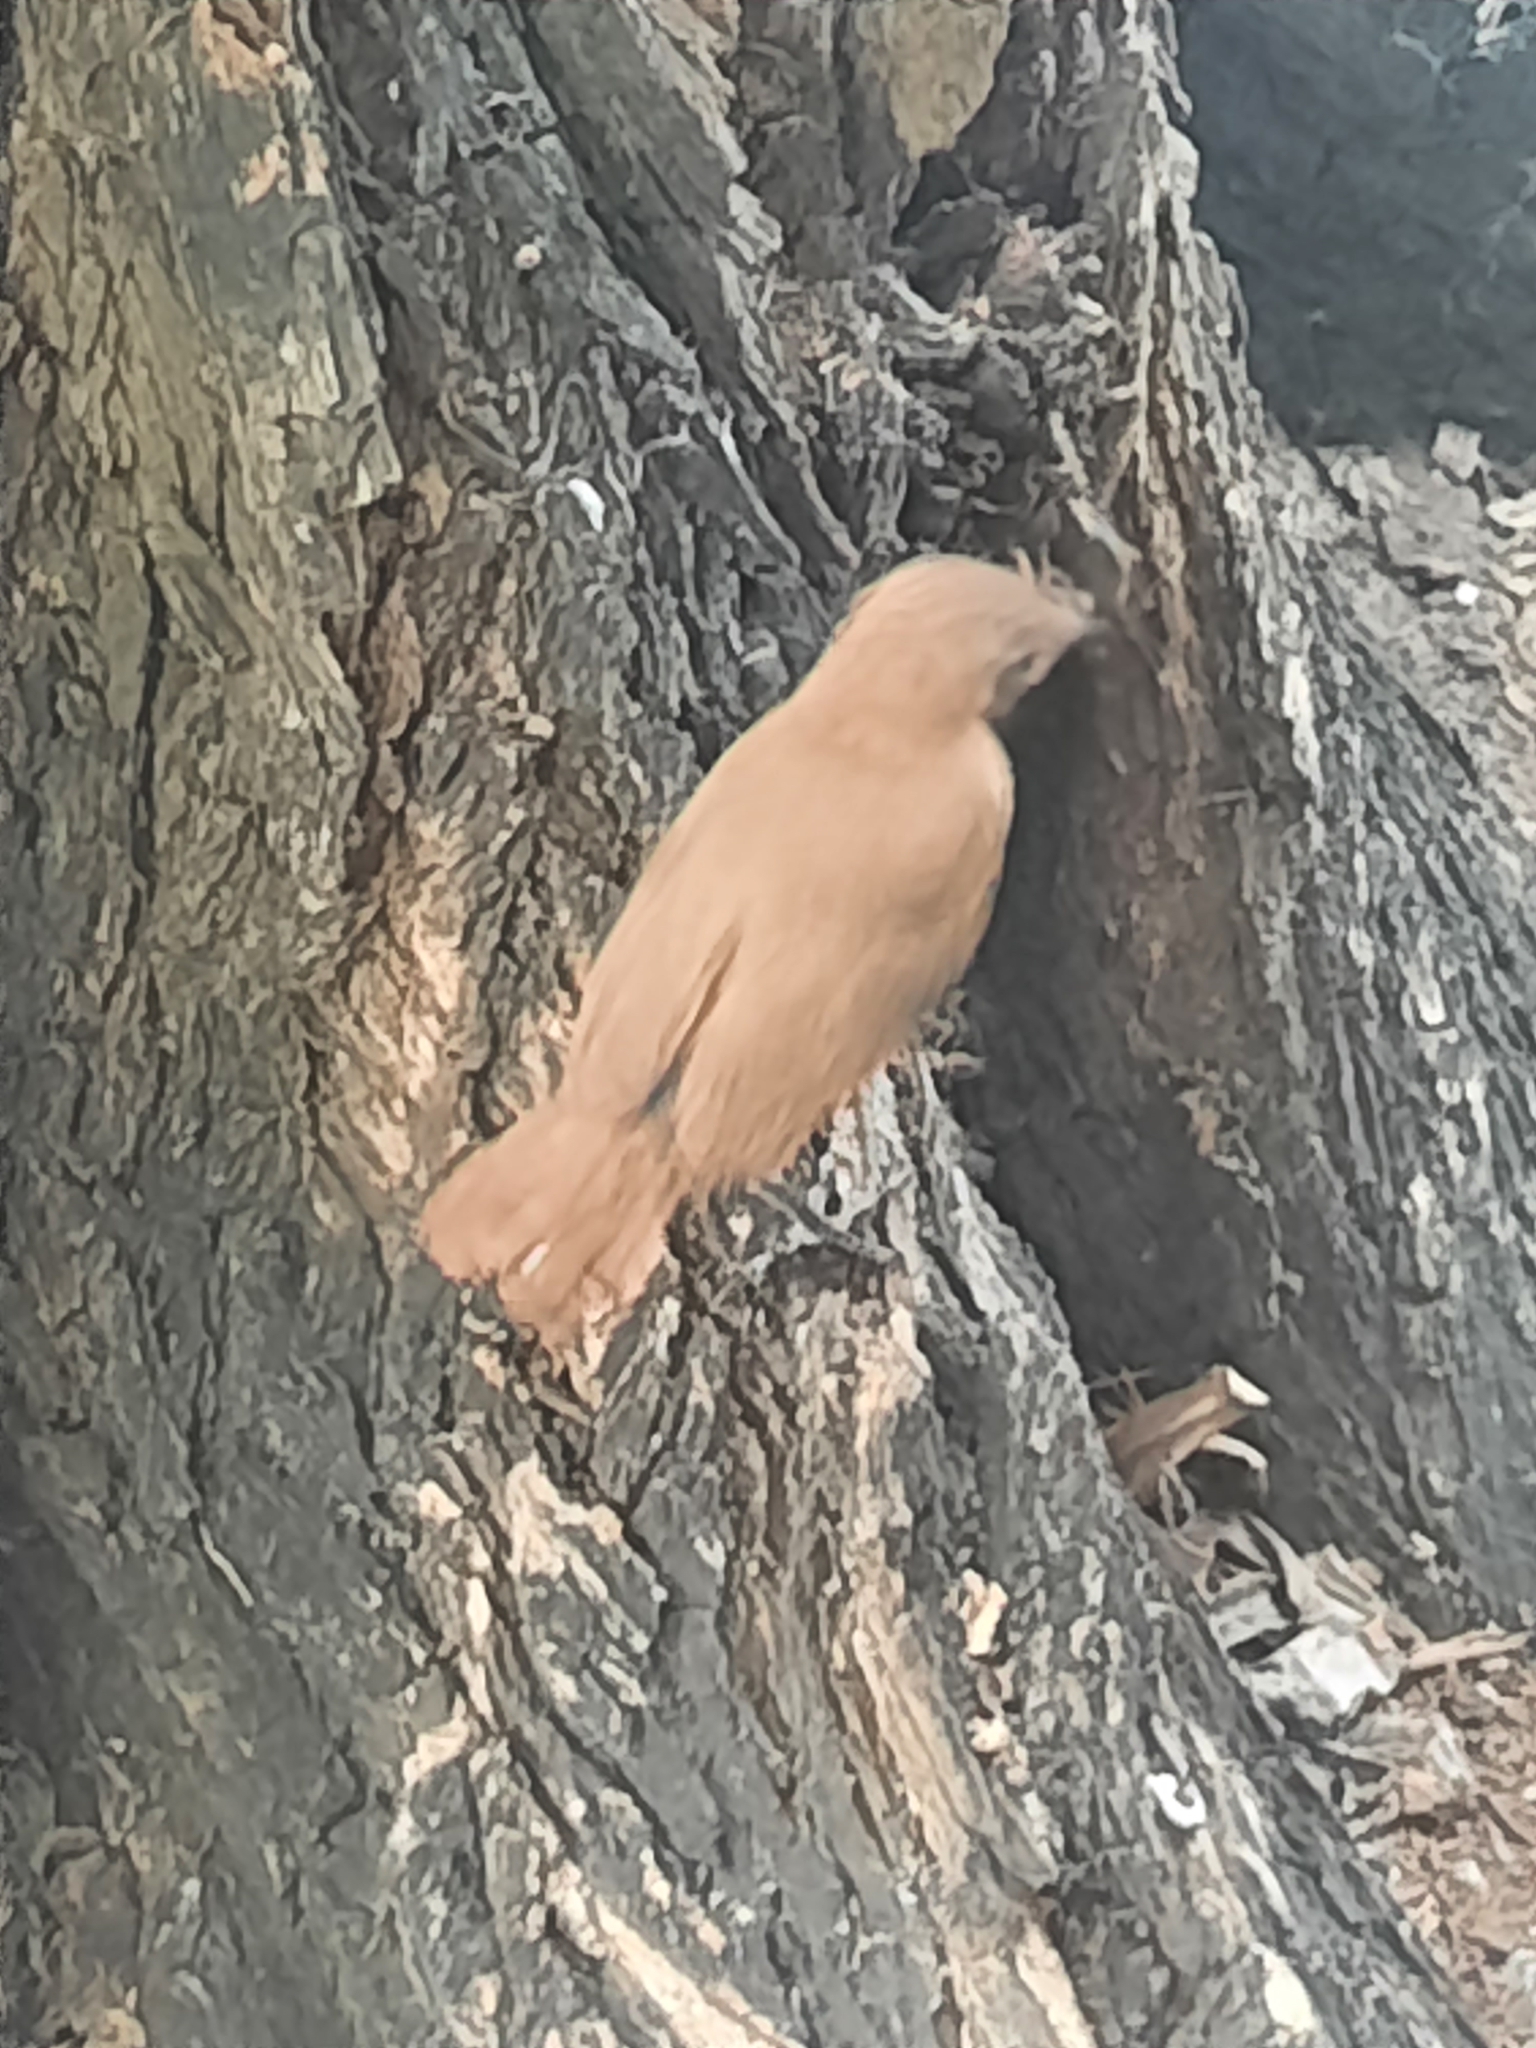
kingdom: Animalia
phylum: Chordata
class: Aves
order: Passeriformes
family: Furnariidae
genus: Furnarius
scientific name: Furnarius rufus
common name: Rufous hornero
